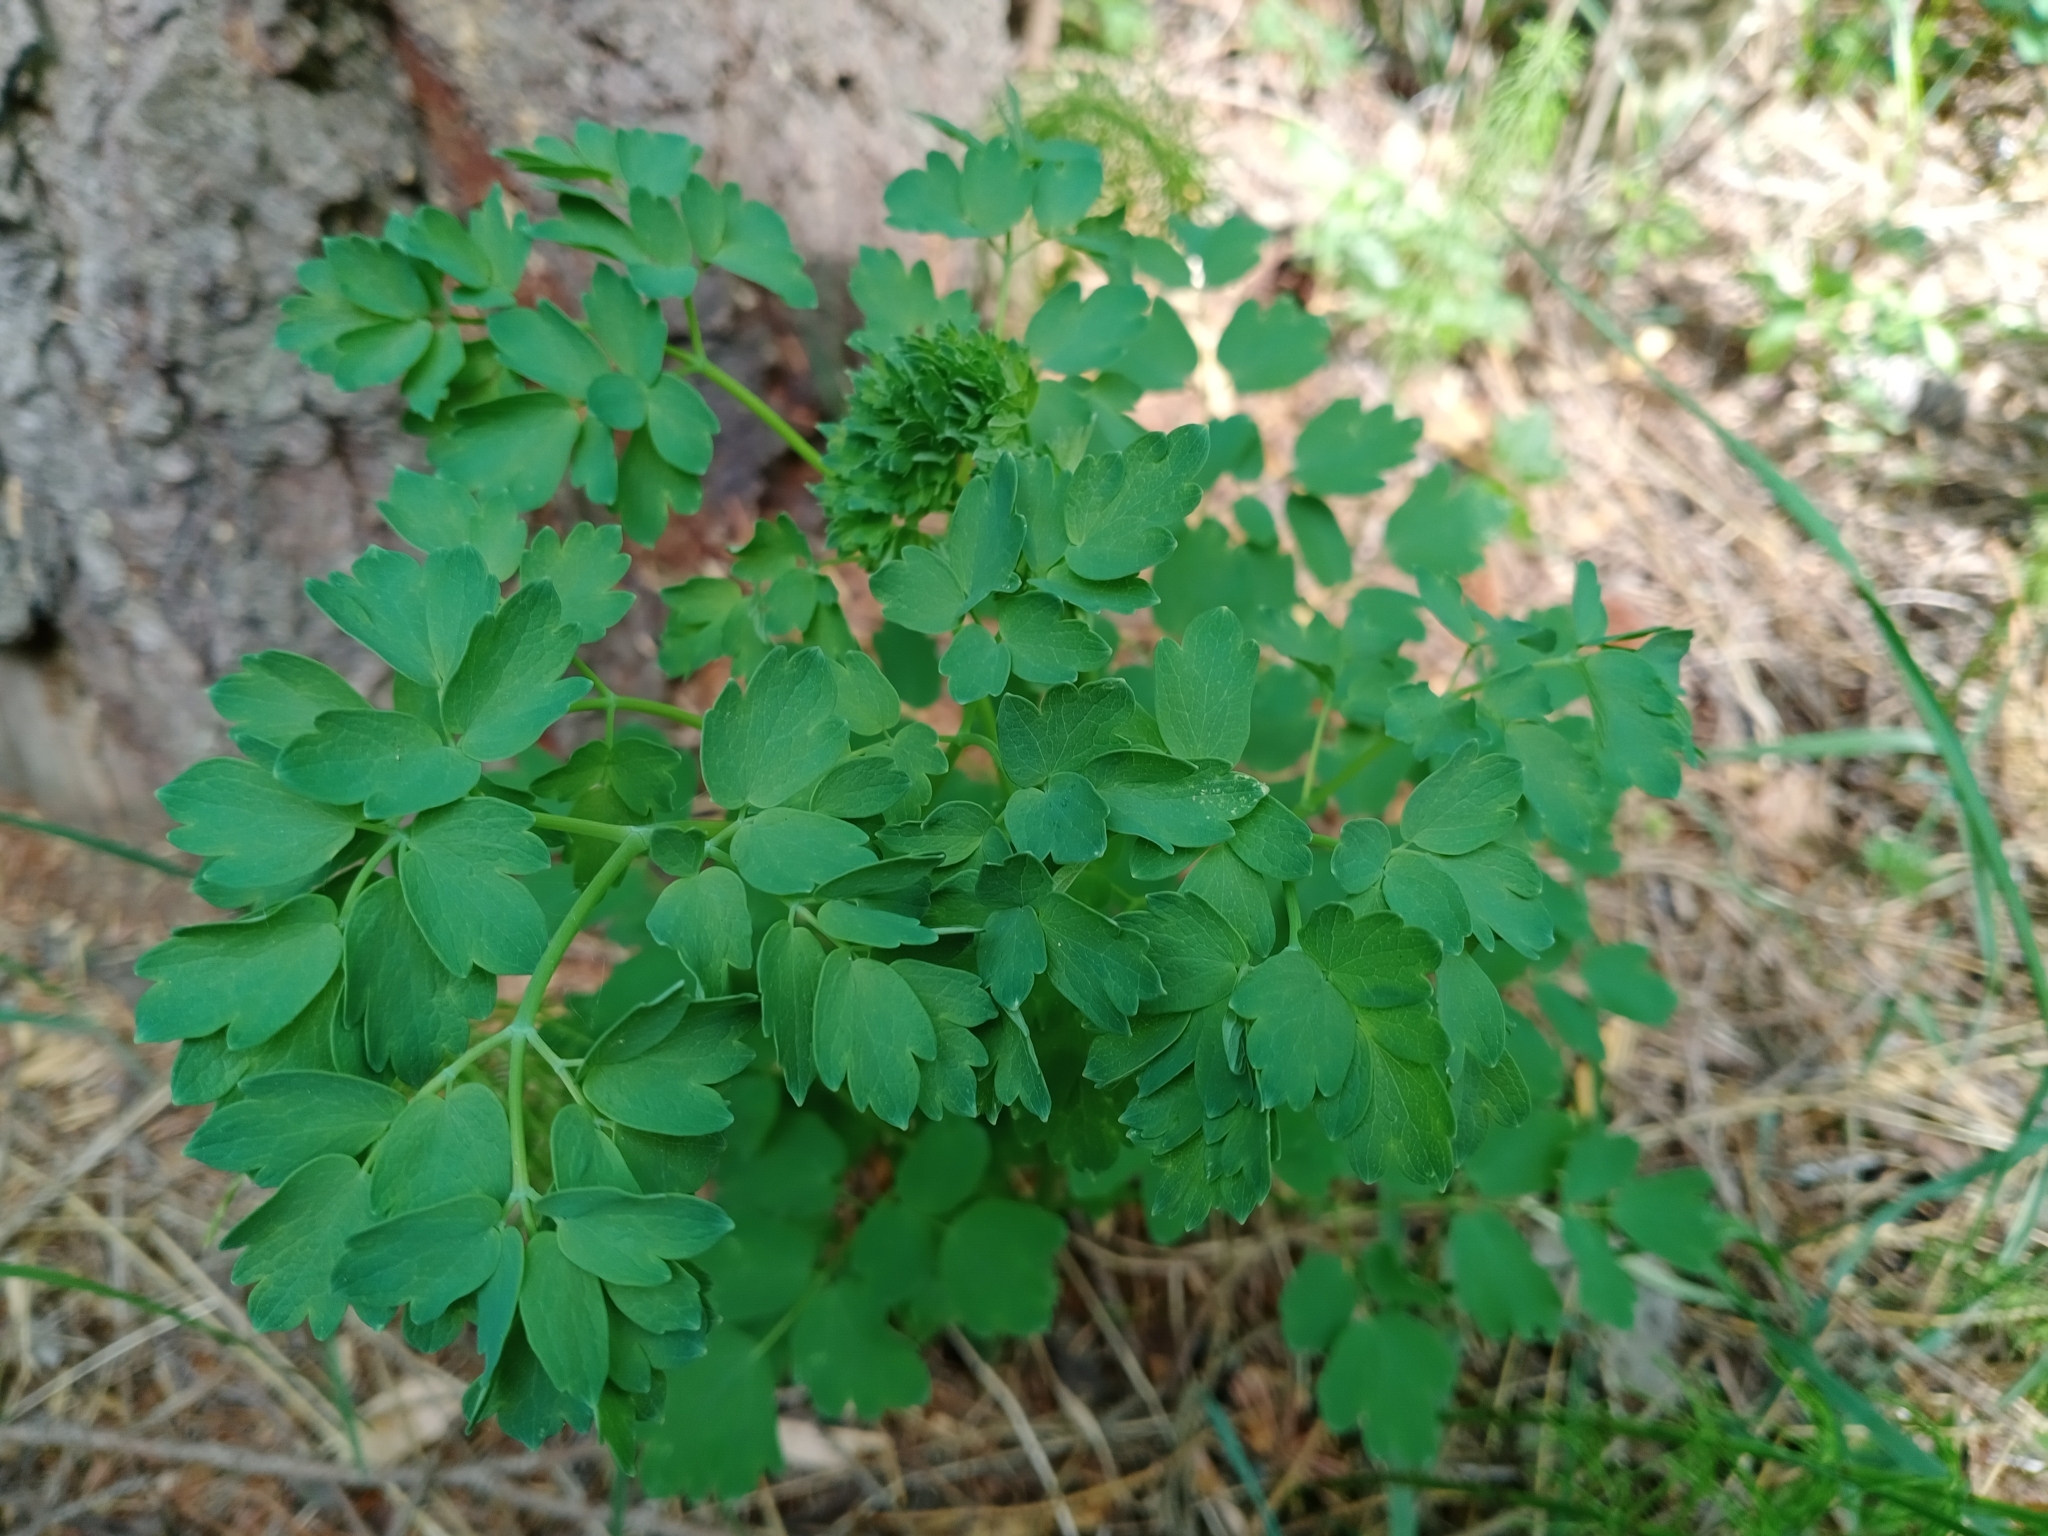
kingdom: Plantae
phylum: Tracheophyta
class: Magnoliopsida
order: Ranunculales
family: Ranunculaceae
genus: Thalictrum
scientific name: Thalictrum minus
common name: Lesser meadow-rue
